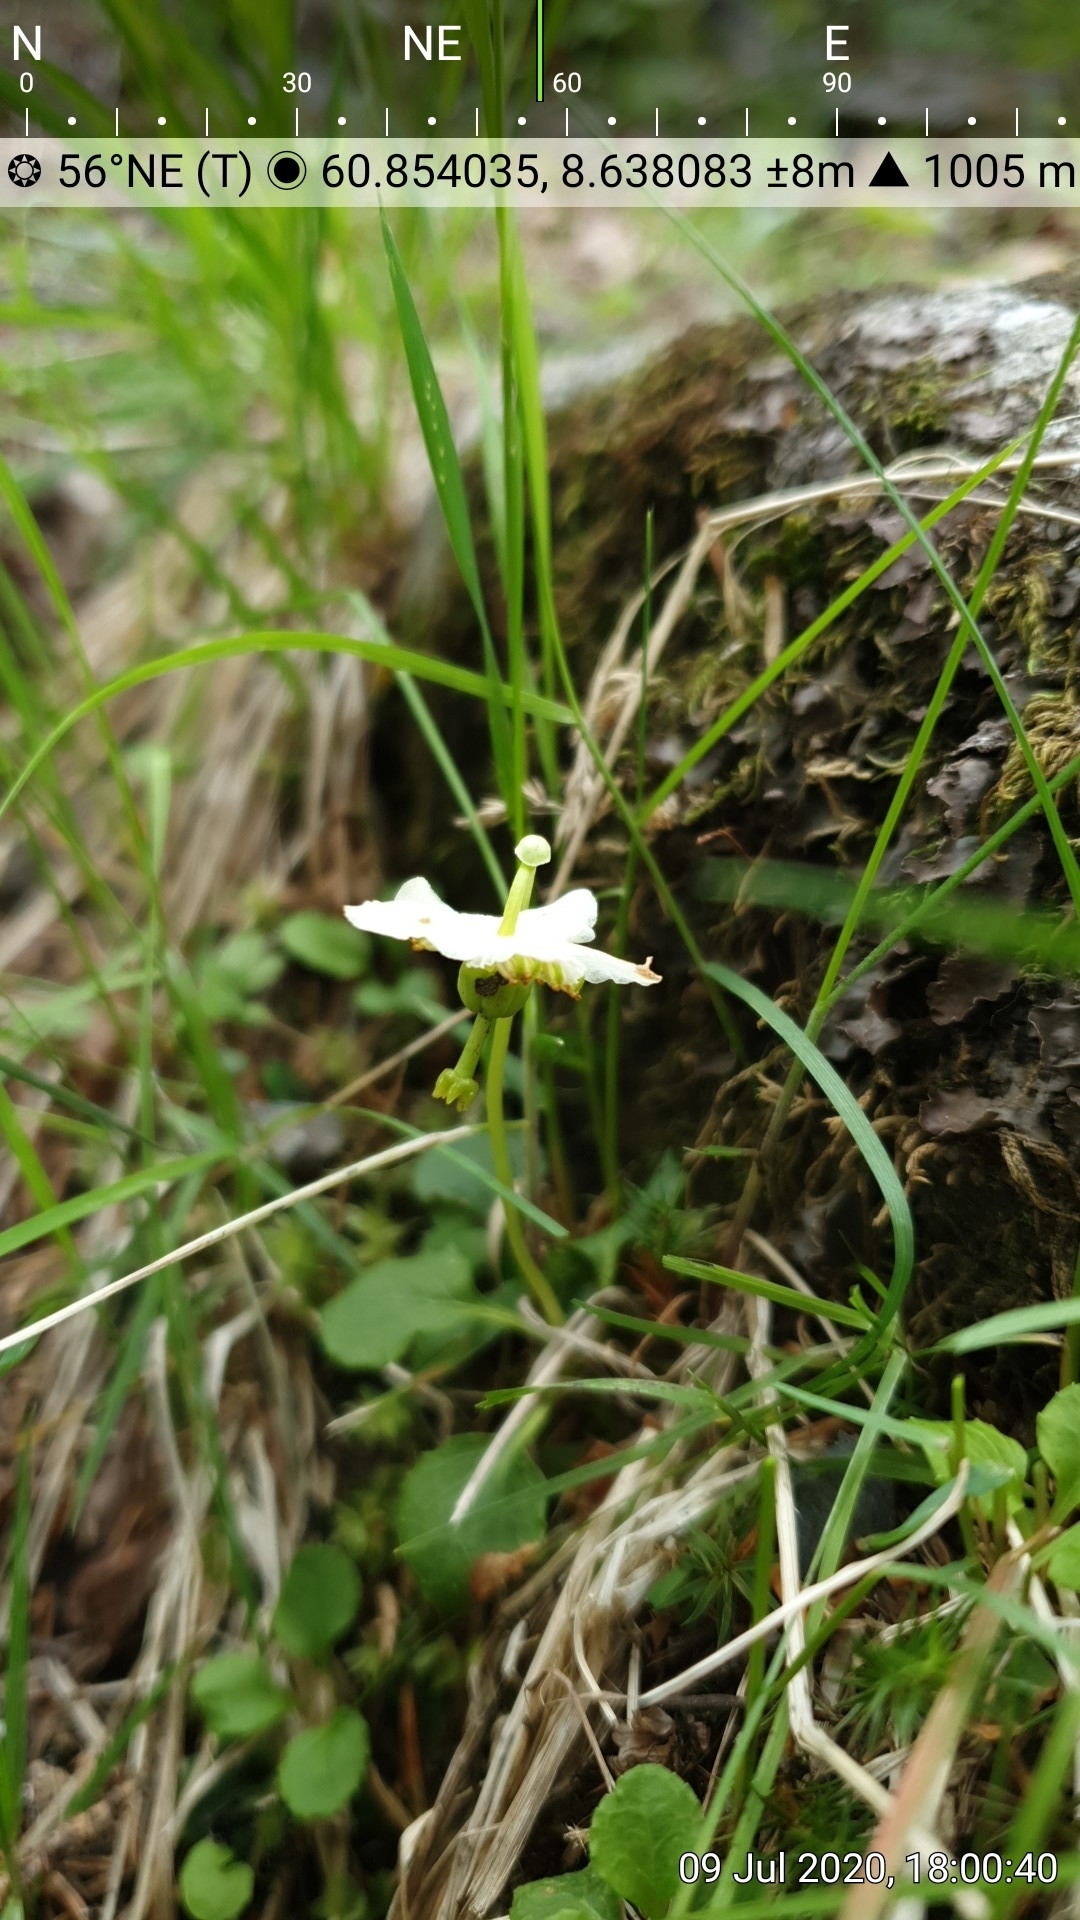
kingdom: Plantae
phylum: Tracheophyta
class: Magnoliopsida
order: Ericales
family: Ericaceae
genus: Moneses
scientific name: Moneses uniflora
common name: One-flowered wintergreen
